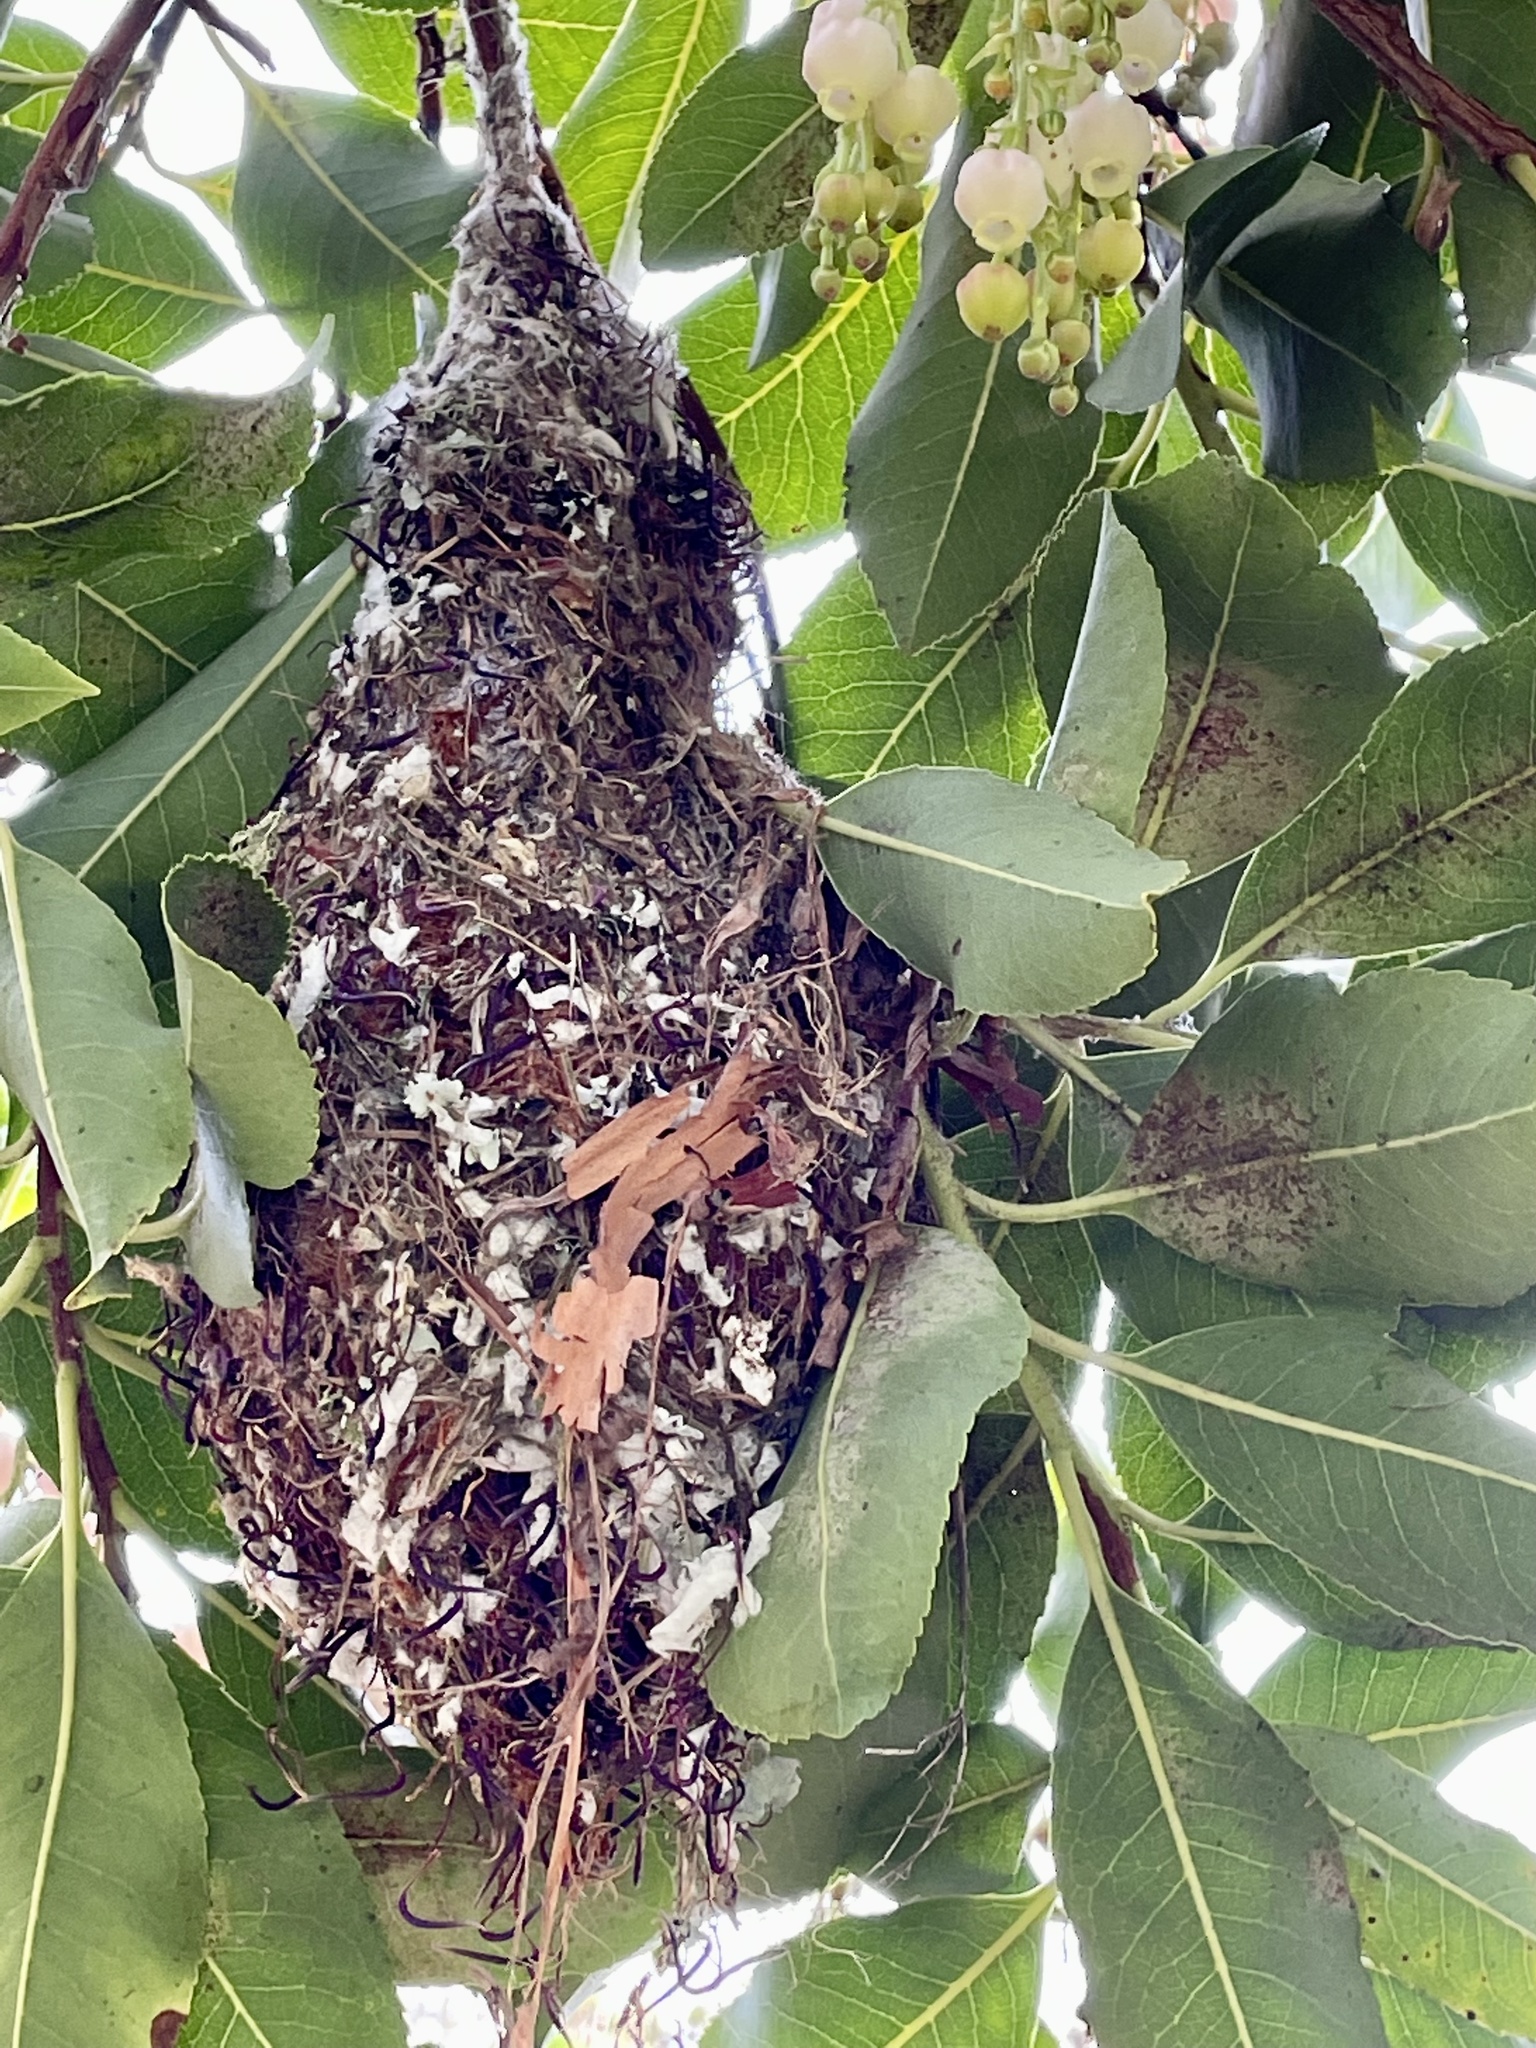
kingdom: Animalia
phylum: Chordata
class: Aves
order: Passeriformes
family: Aegithalidae
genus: Psaltriparus
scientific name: Psaltriparus minimus
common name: American bushtit
